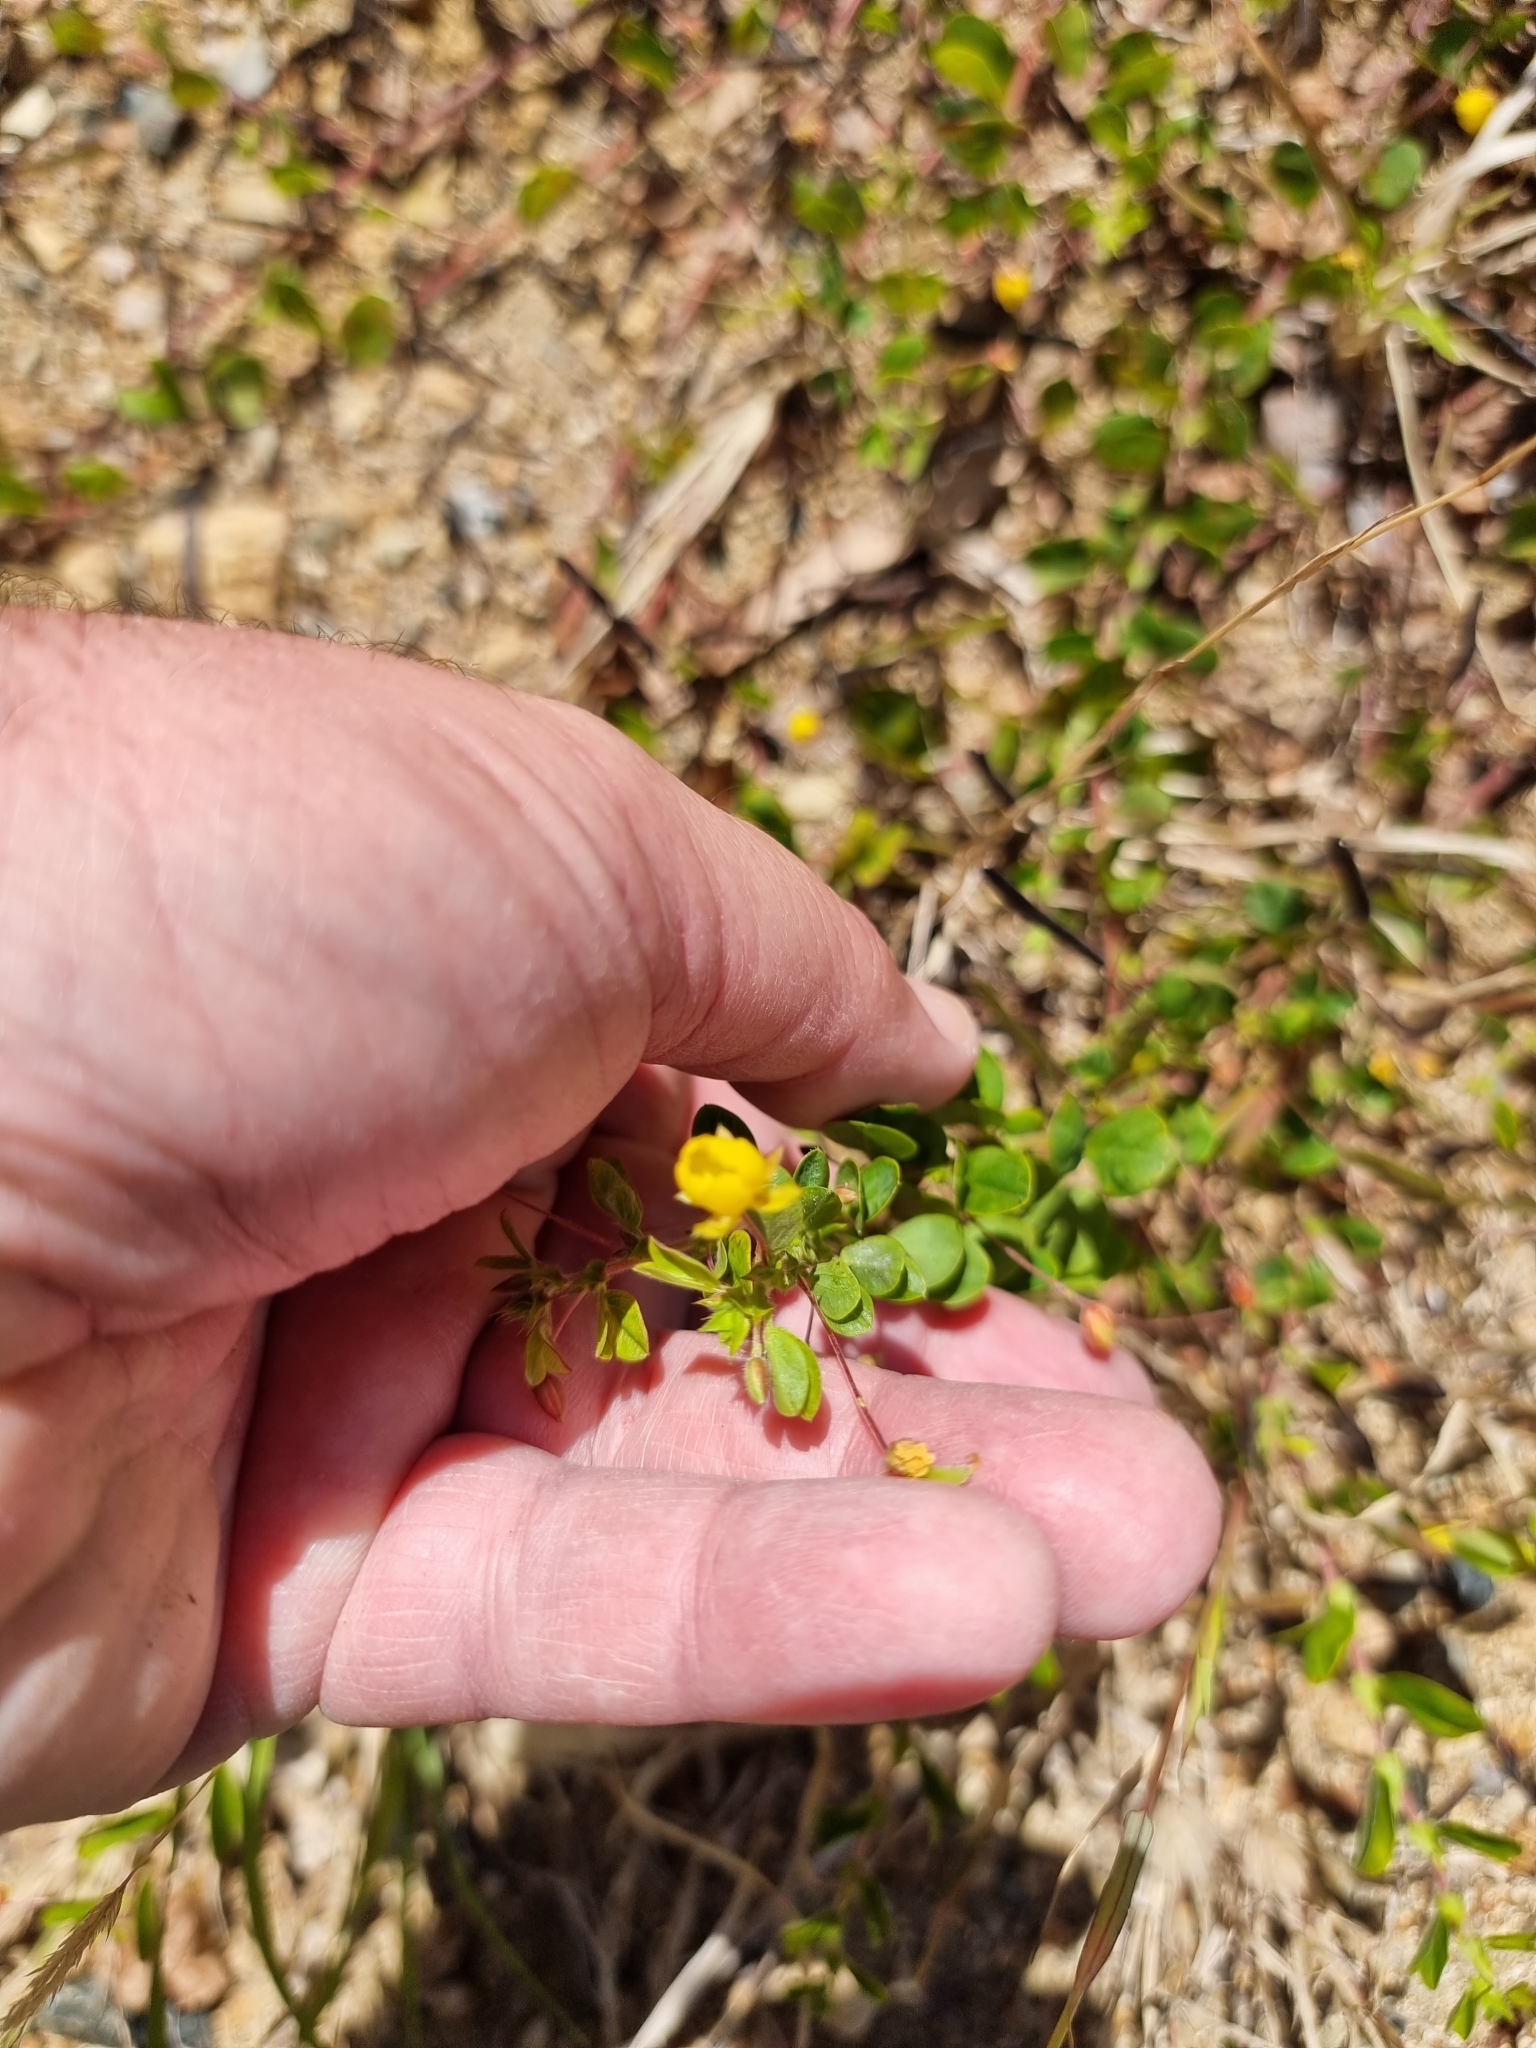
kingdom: Plantae
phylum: Tracheophyta
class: Magnoliopsida
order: Fabales
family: Fabaceae
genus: Chamaecrista
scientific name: Chamaecrista rotundifolia
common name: Round-leaf cassia
